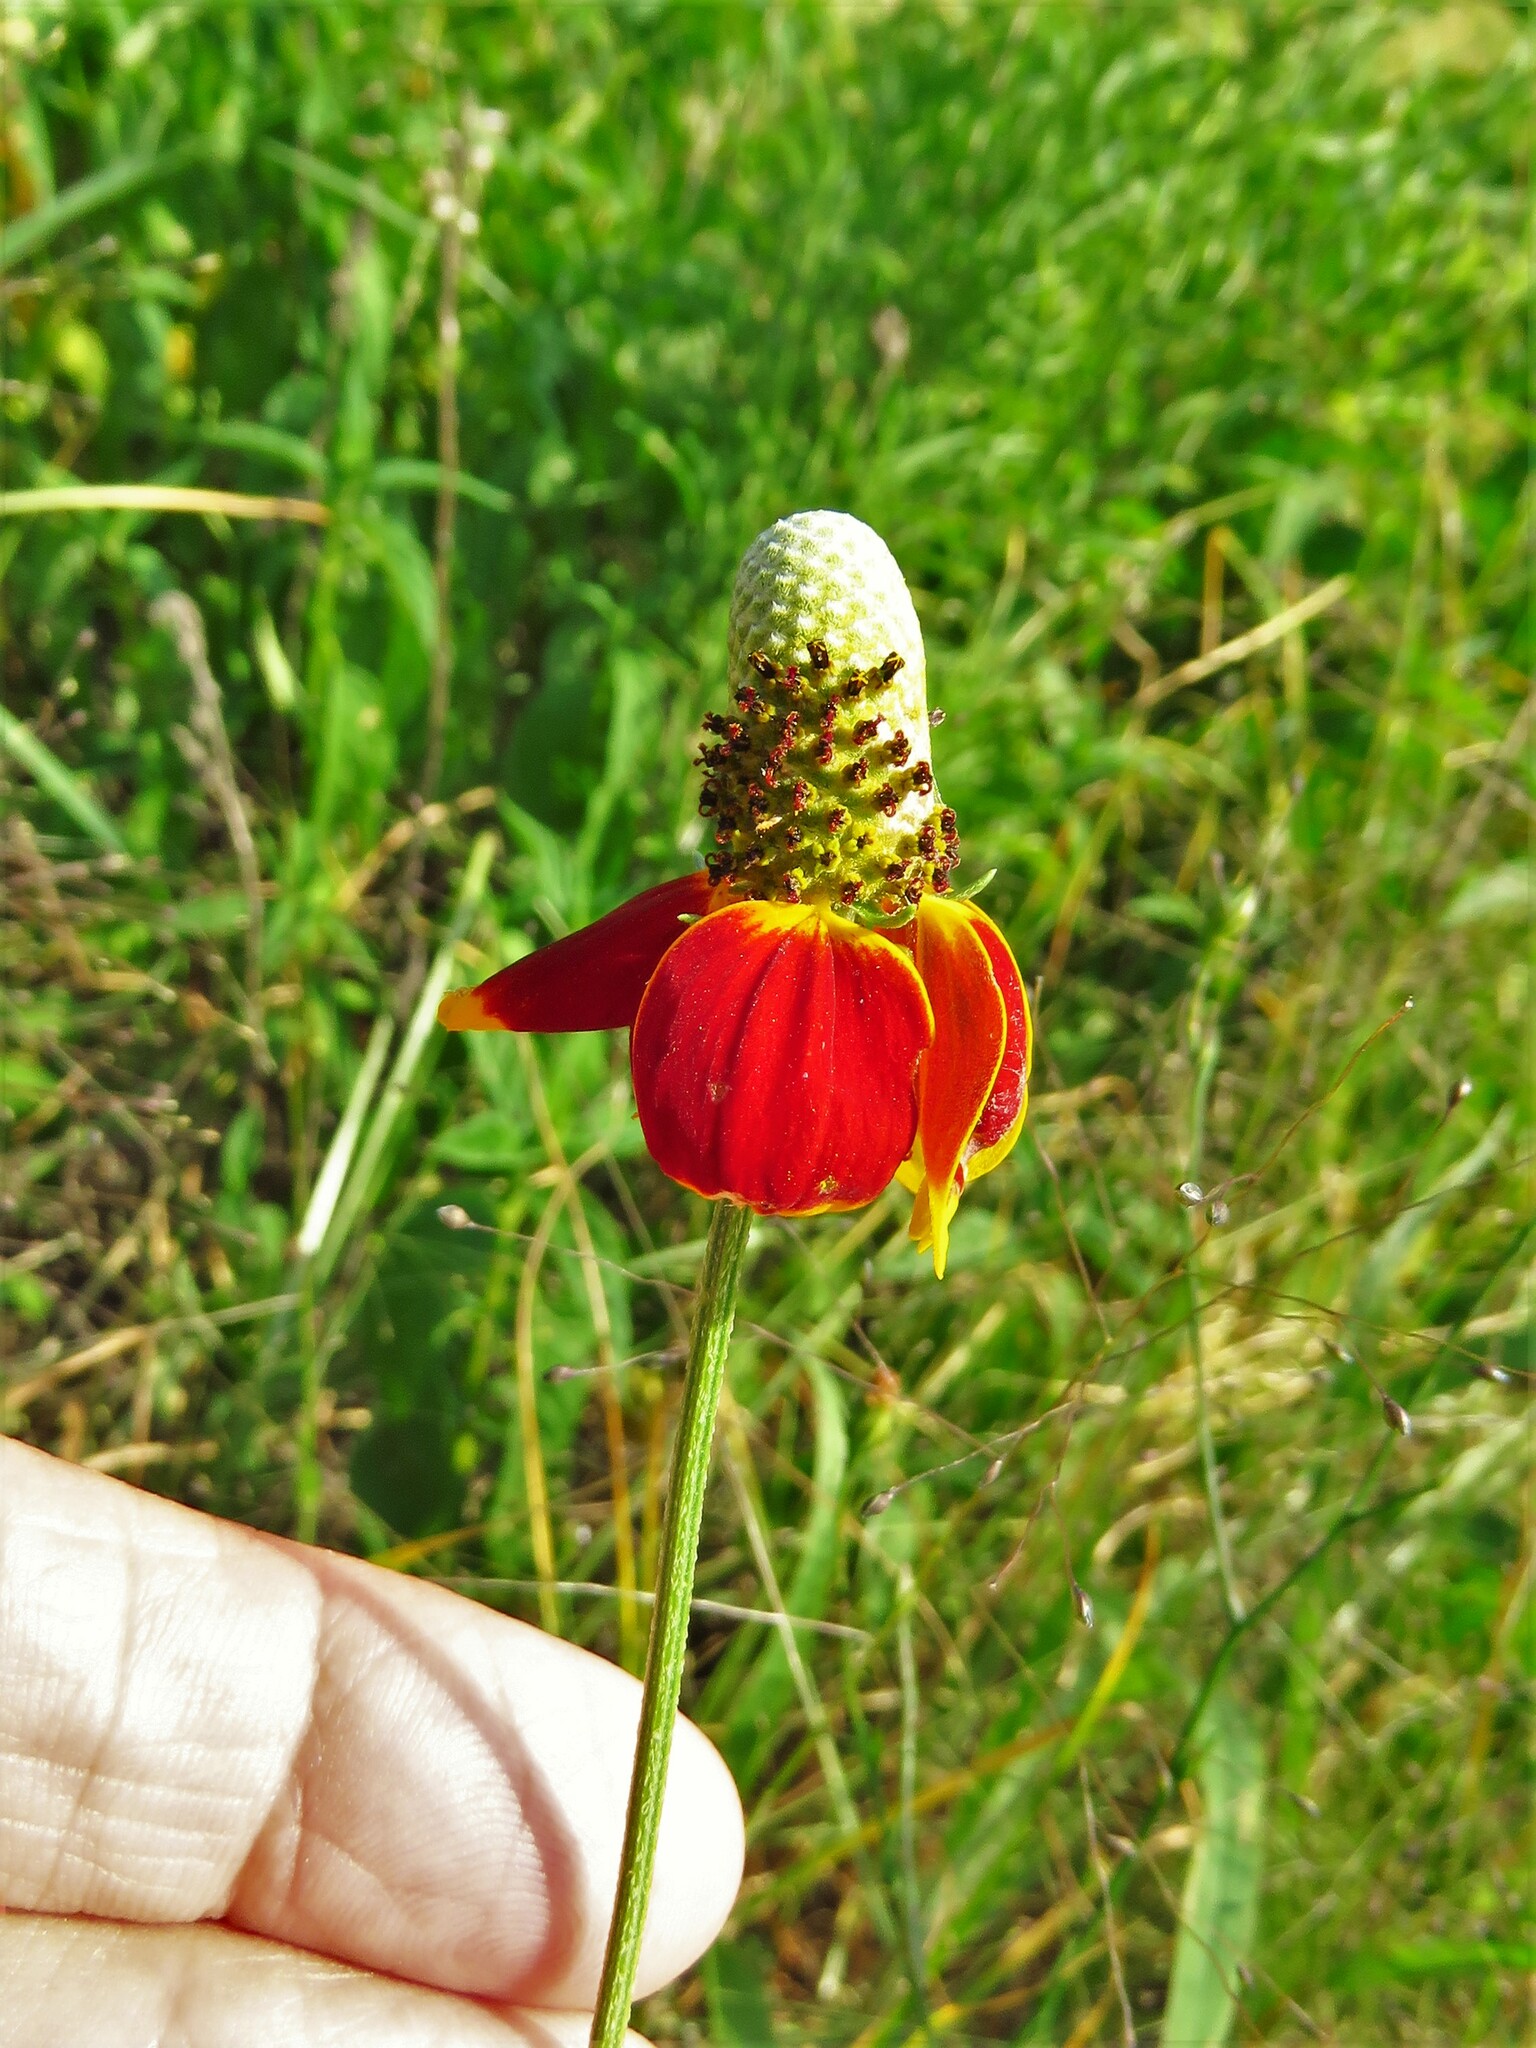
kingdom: Plantae
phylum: Tracheophyta
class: Magnoliopsida
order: Asterales
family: Asteraceae
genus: Ratibida
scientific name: Ratibida columnifera
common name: Prairie coneflower
